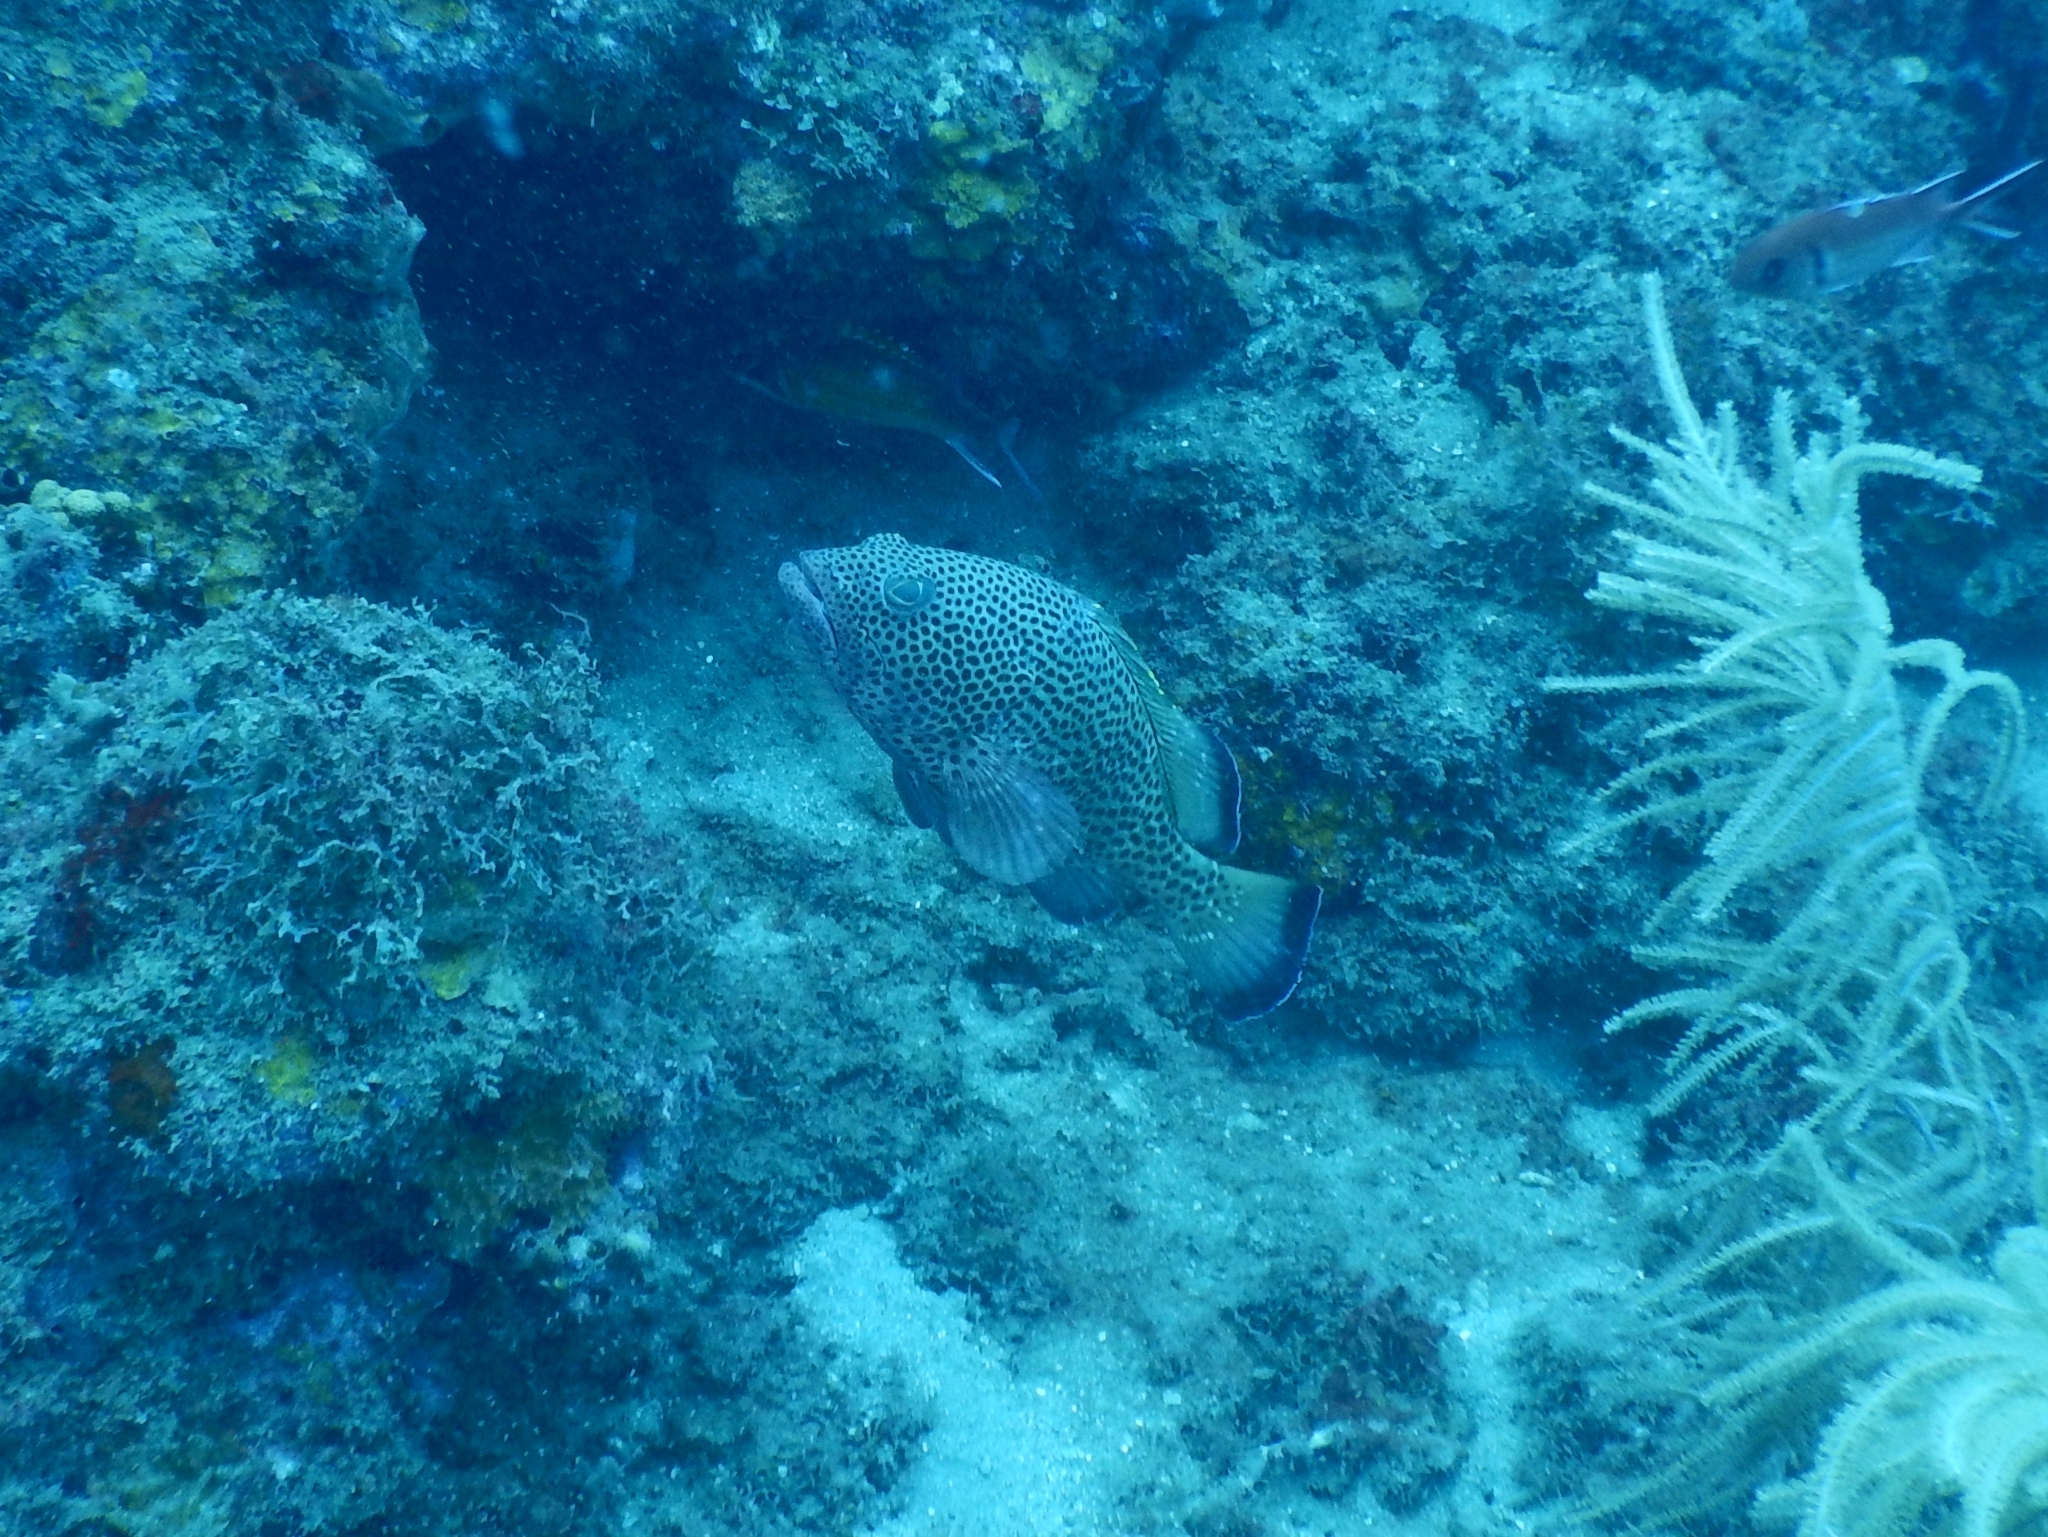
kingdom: Animalia
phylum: Chordata
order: Perciformes
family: Serranidae
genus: Epinephelus
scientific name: Epinephelus guttatus
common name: Red hind
